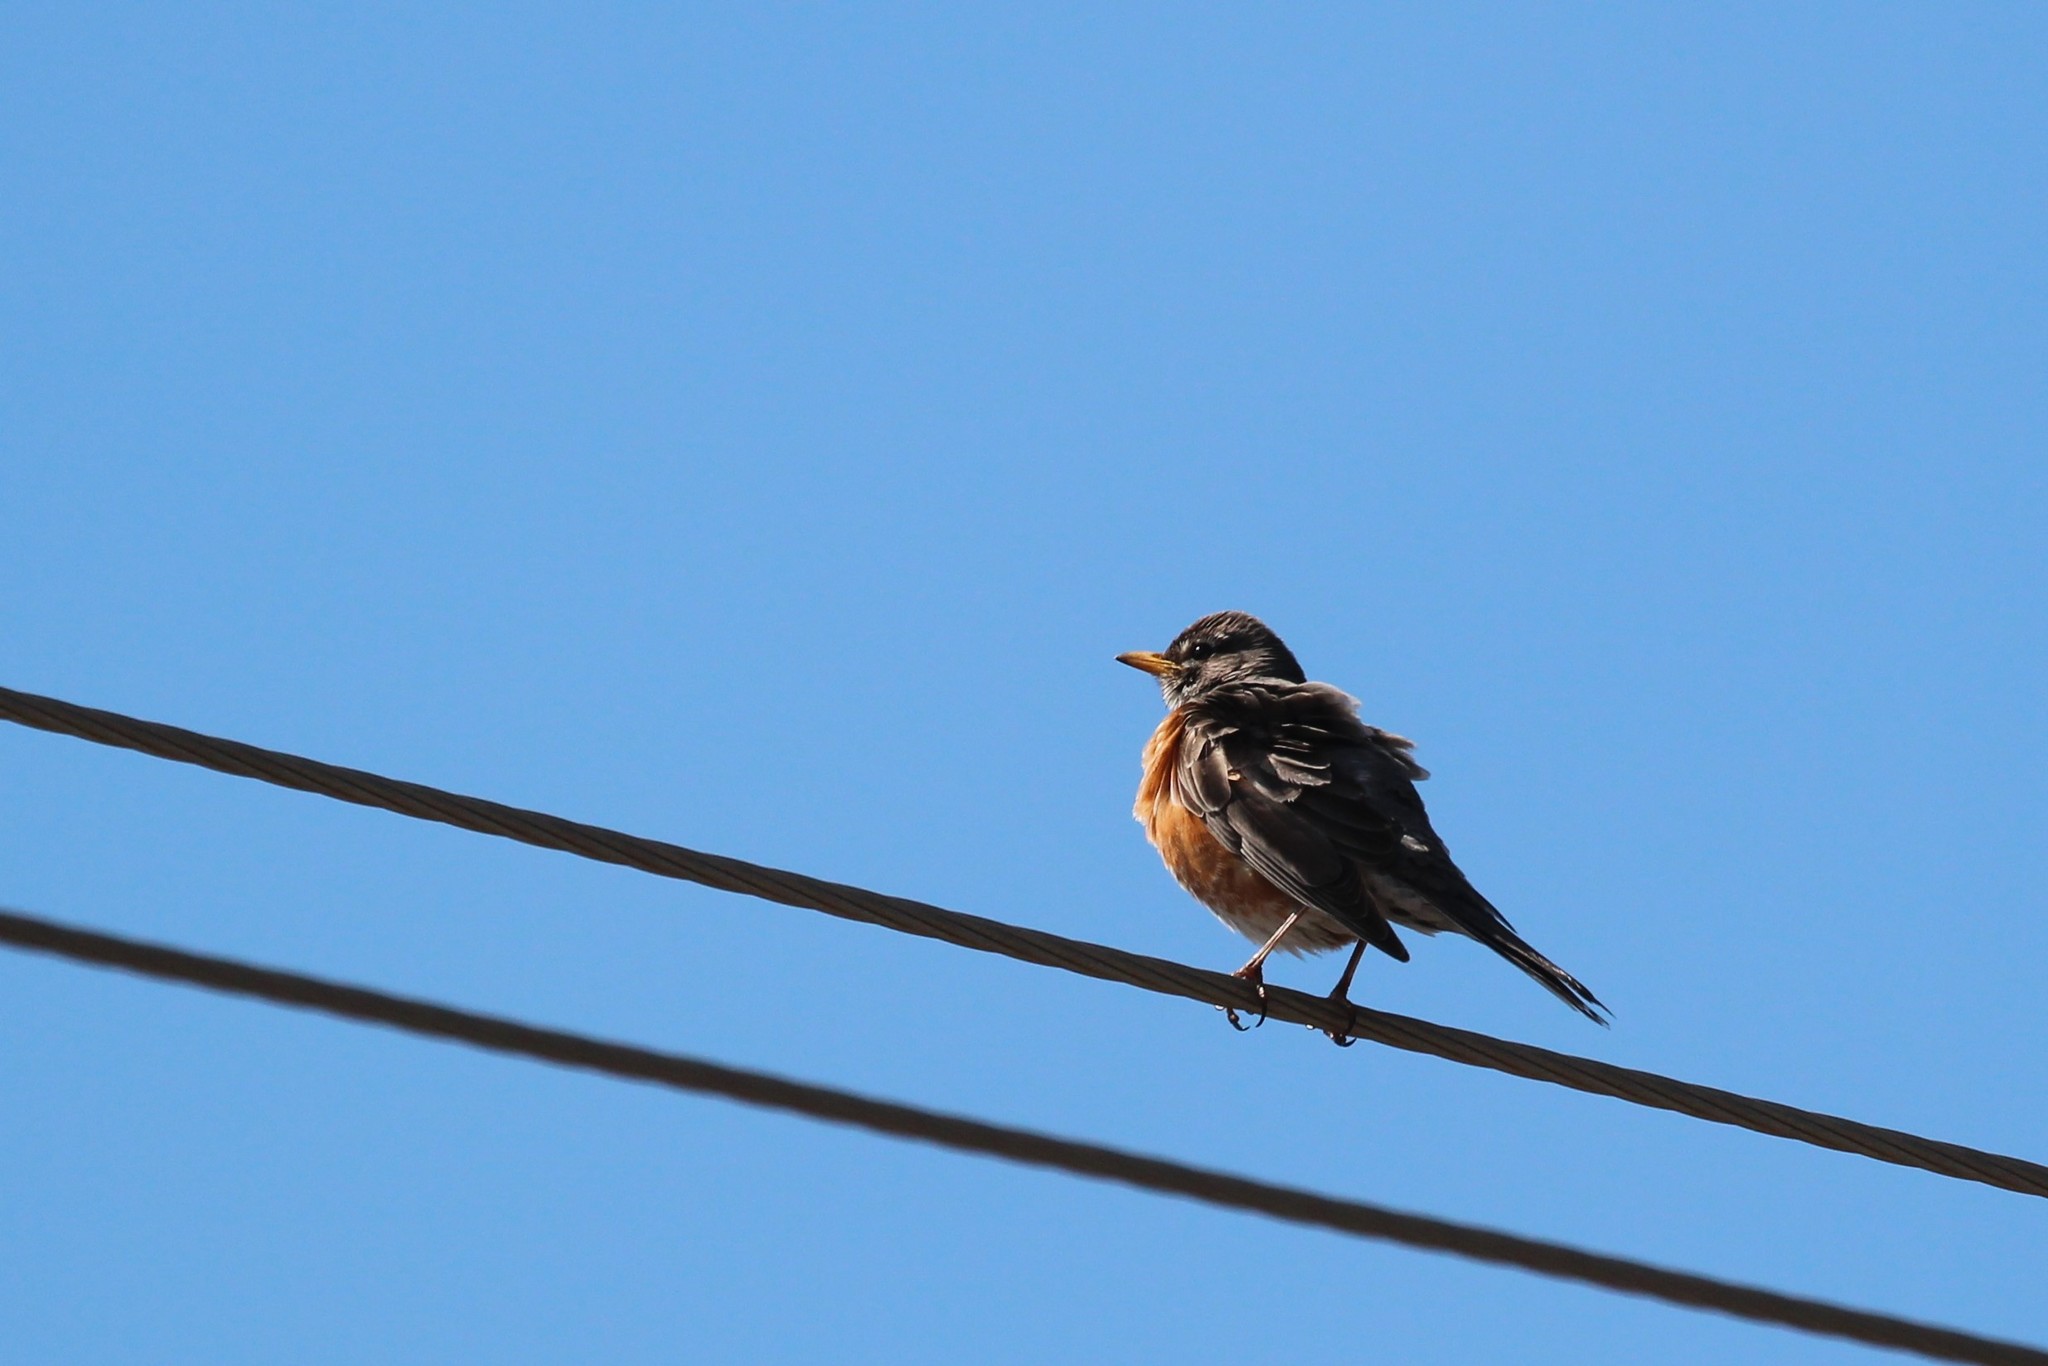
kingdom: Animalia
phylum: Chordata
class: Aves
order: Passeriformes
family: Turdidae
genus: Turdus
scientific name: Turdus migratorius
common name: American robin
